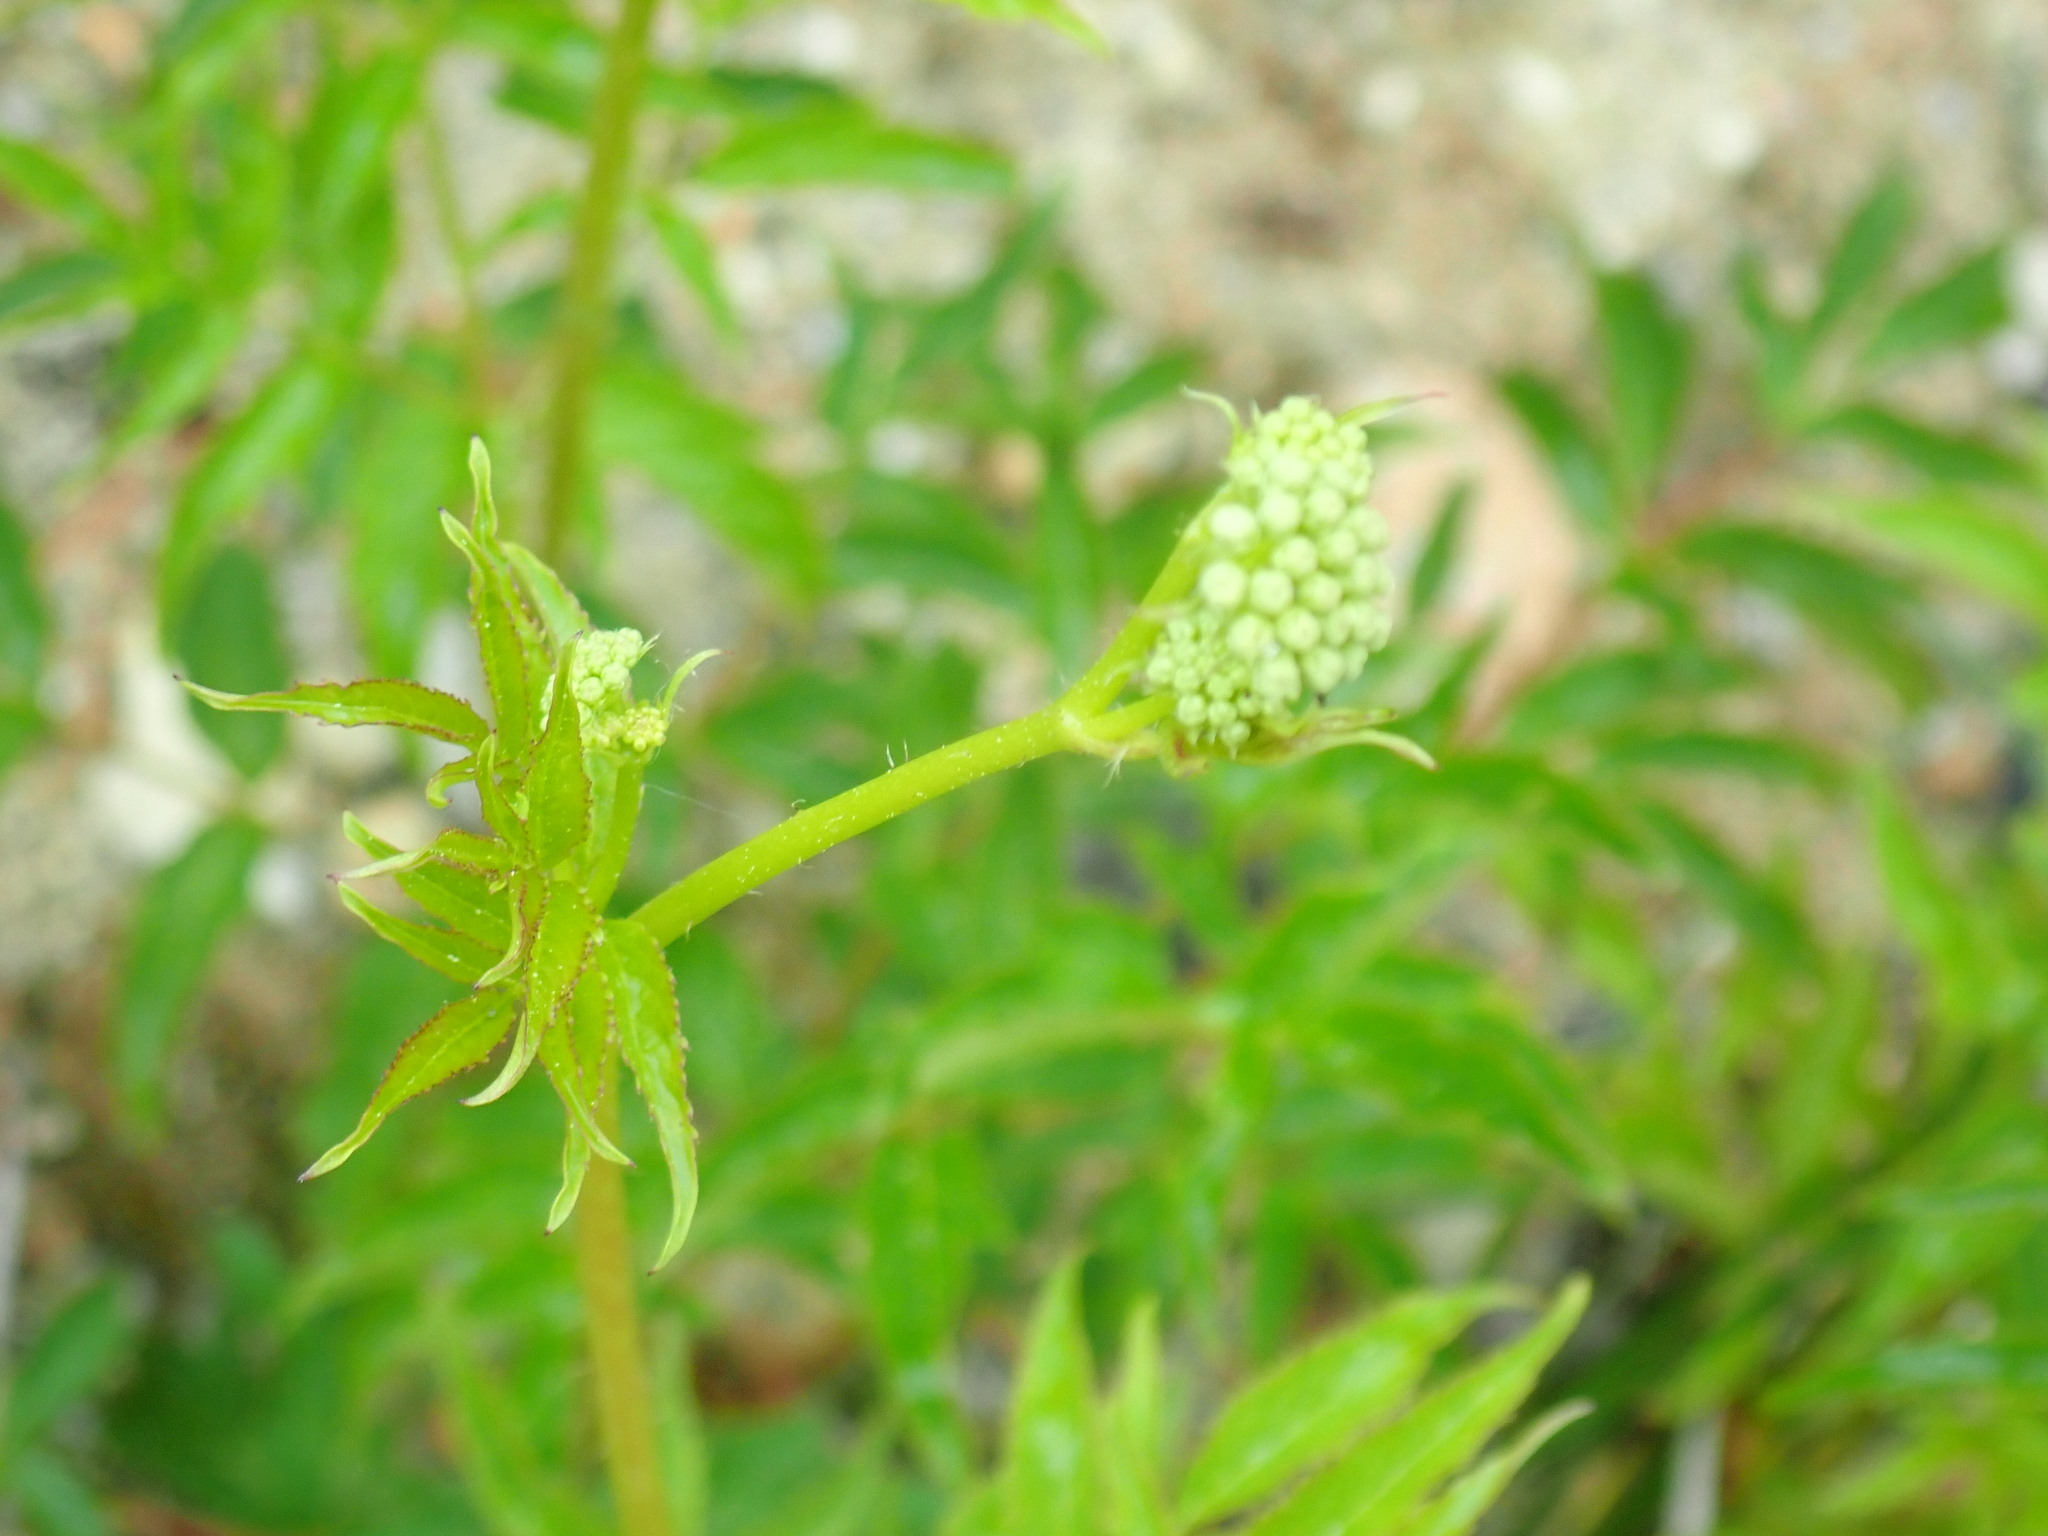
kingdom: Plantae
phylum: Tracheophyta
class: Magnoliopsida
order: Apiales
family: Araliaceae
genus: Aralia
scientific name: Aralia hispida
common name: Bristly sarsaparilla
